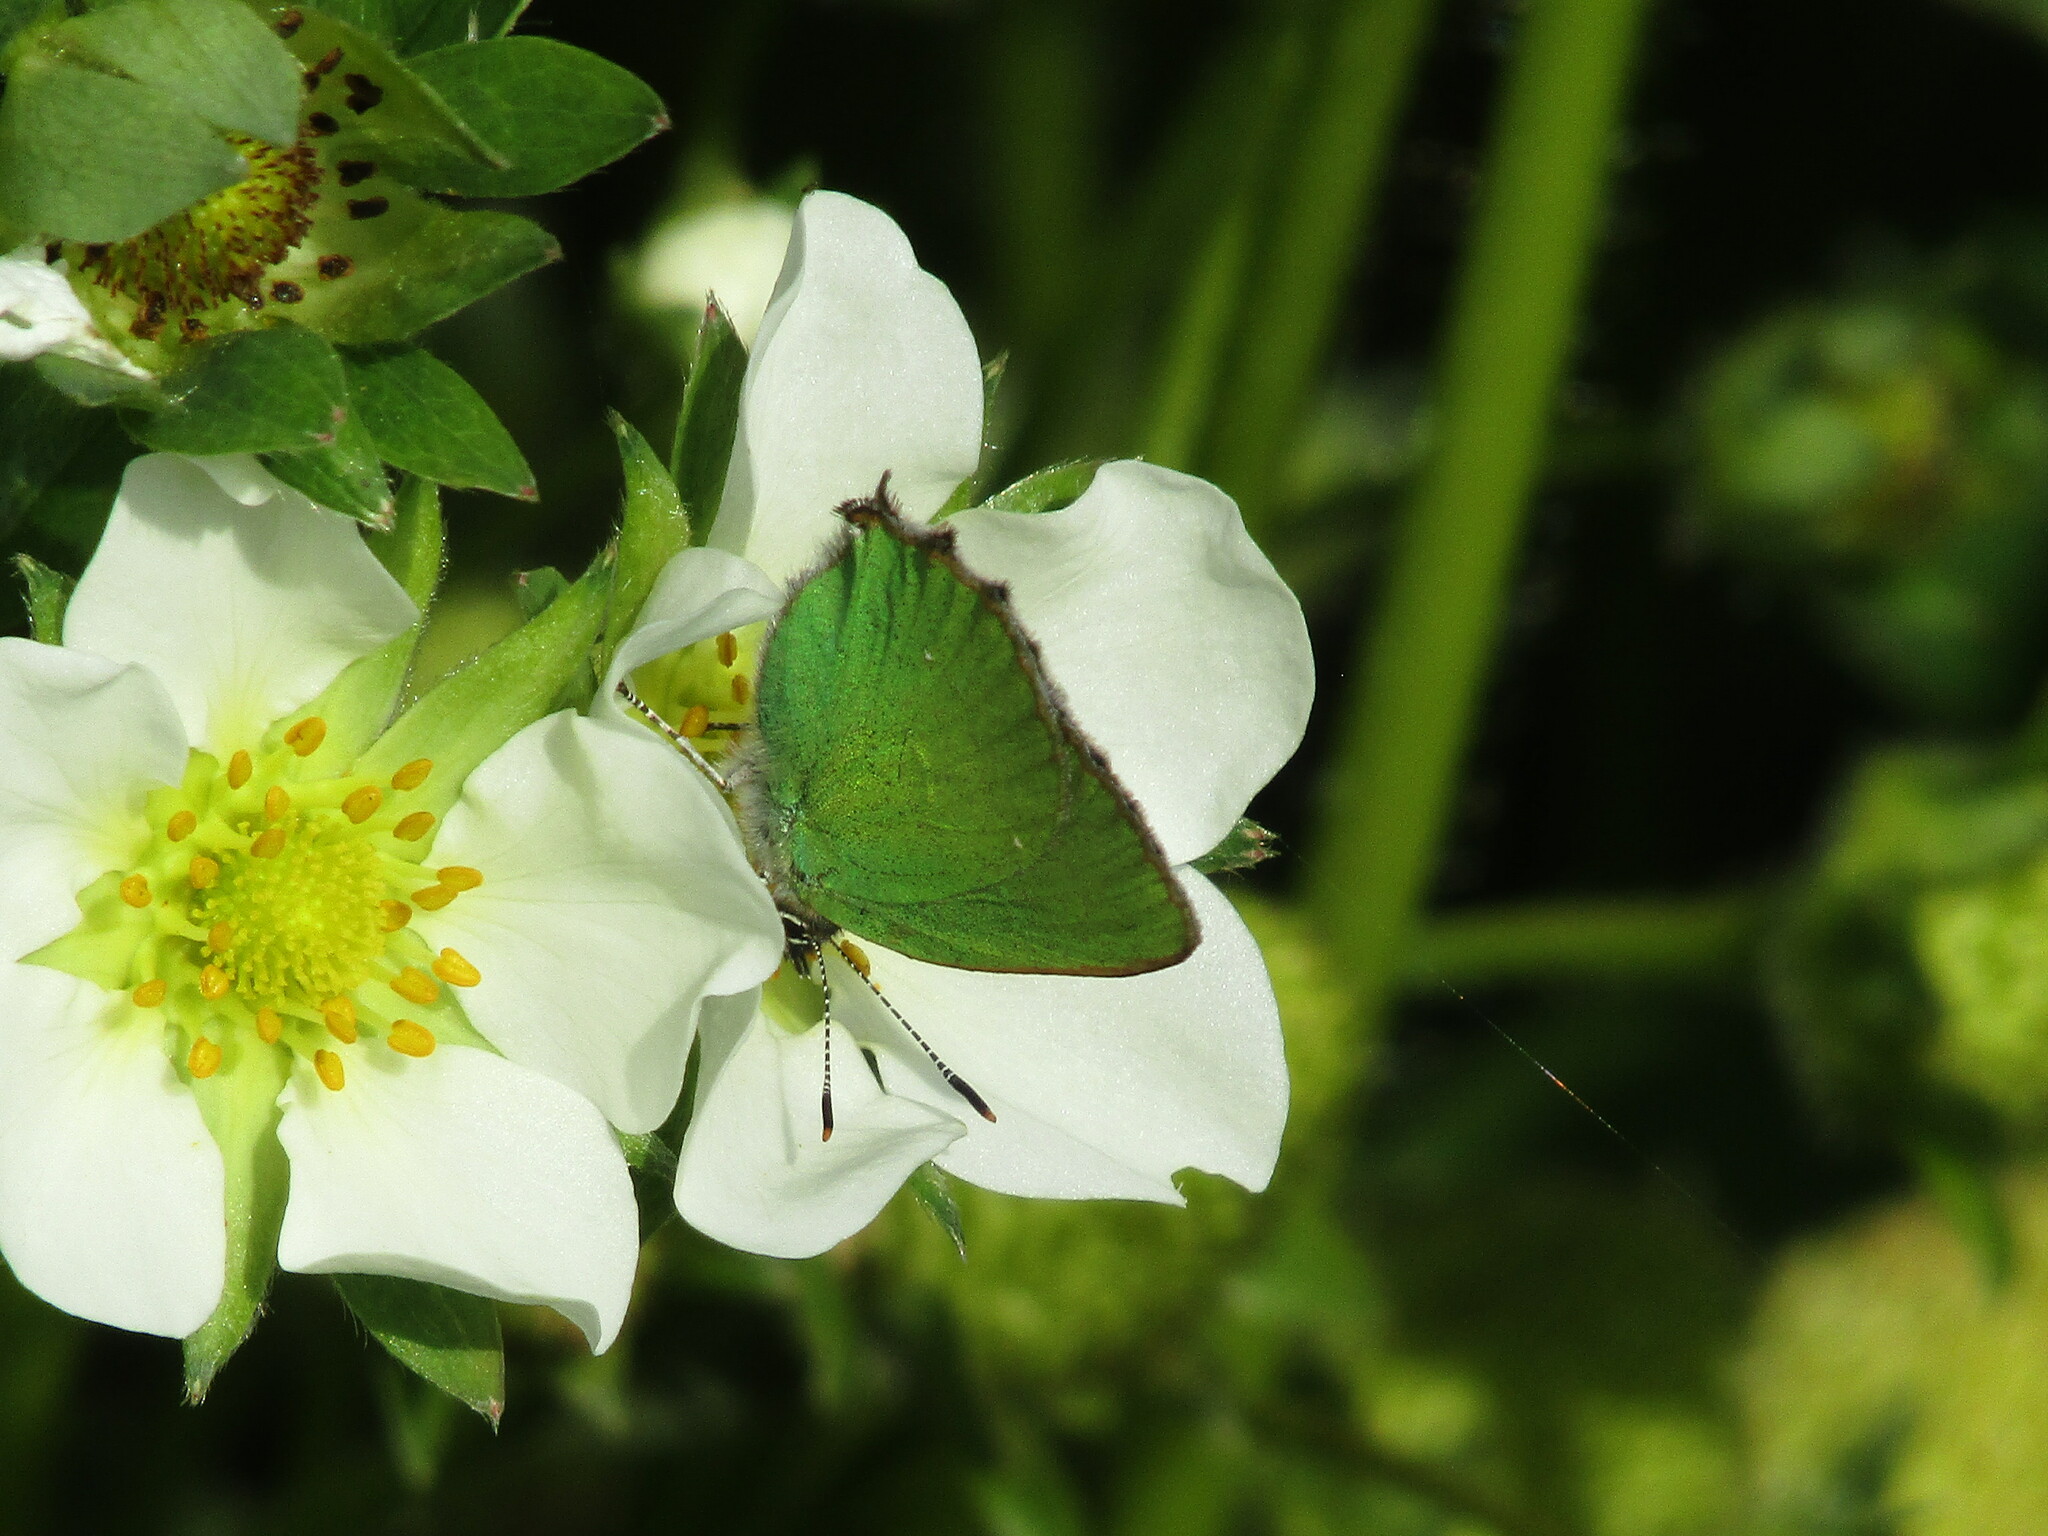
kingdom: Animalia
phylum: Arthropoda
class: Insecta
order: Lepidoptera
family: Lycaenidae
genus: Callophrys
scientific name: Callophrys rubi
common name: Green hairstreak
